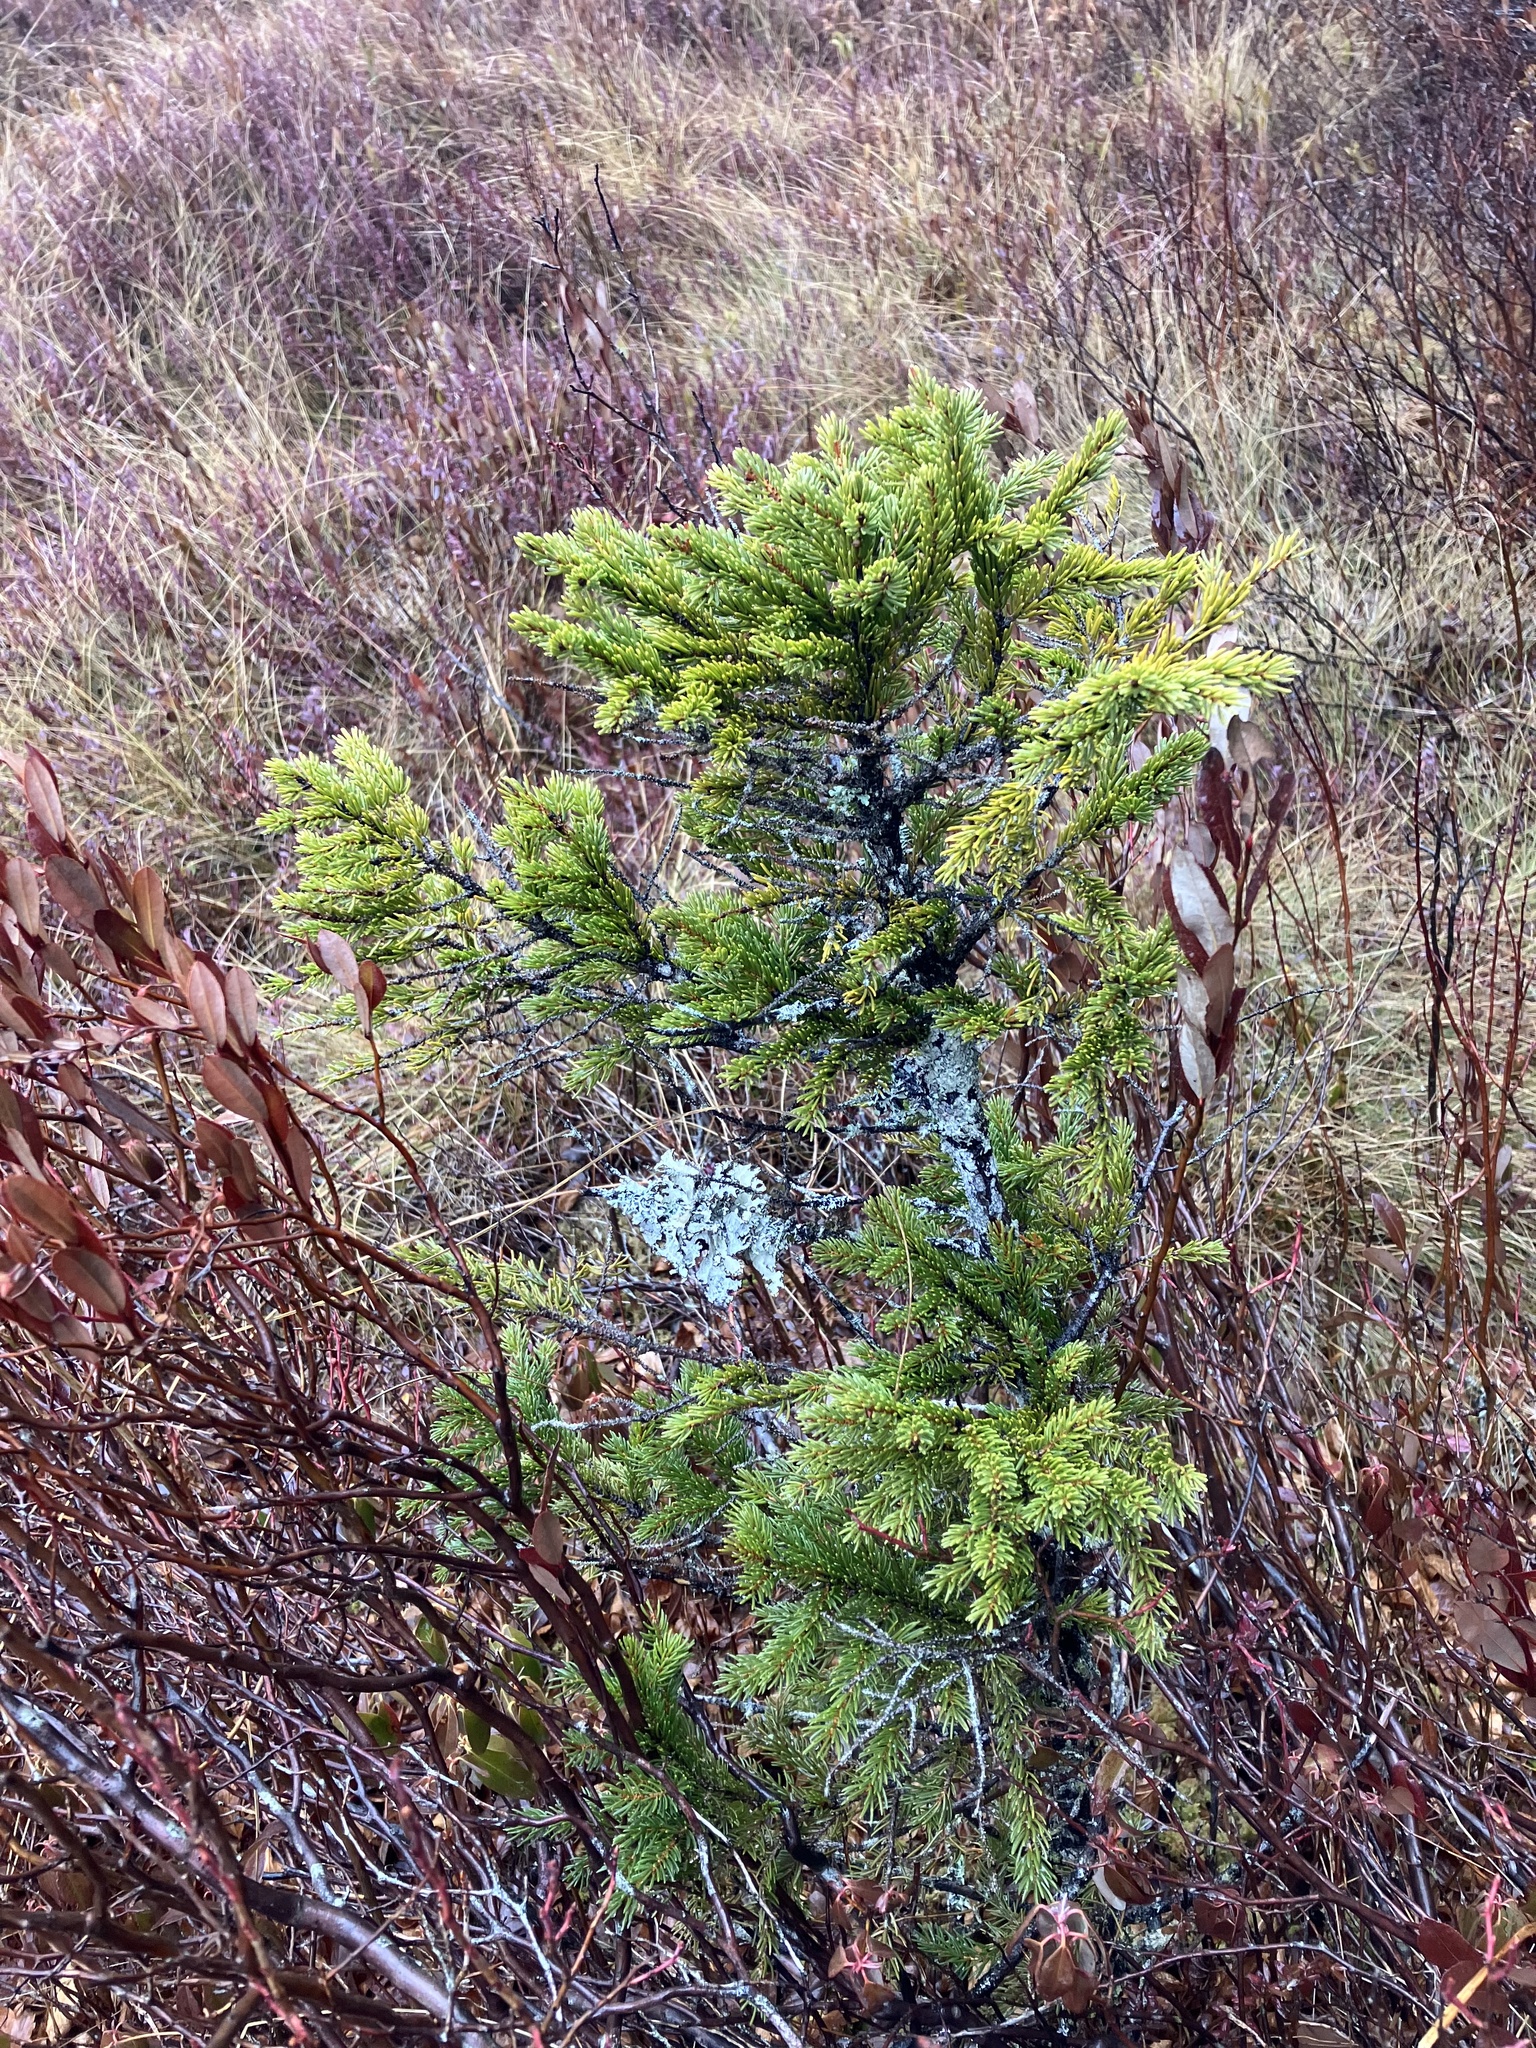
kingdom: Plantae
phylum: Tracheophyta
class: Pinopsida
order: Pinales
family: Pinaceae
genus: Picea
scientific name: Picea mariana
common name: Black spruce
